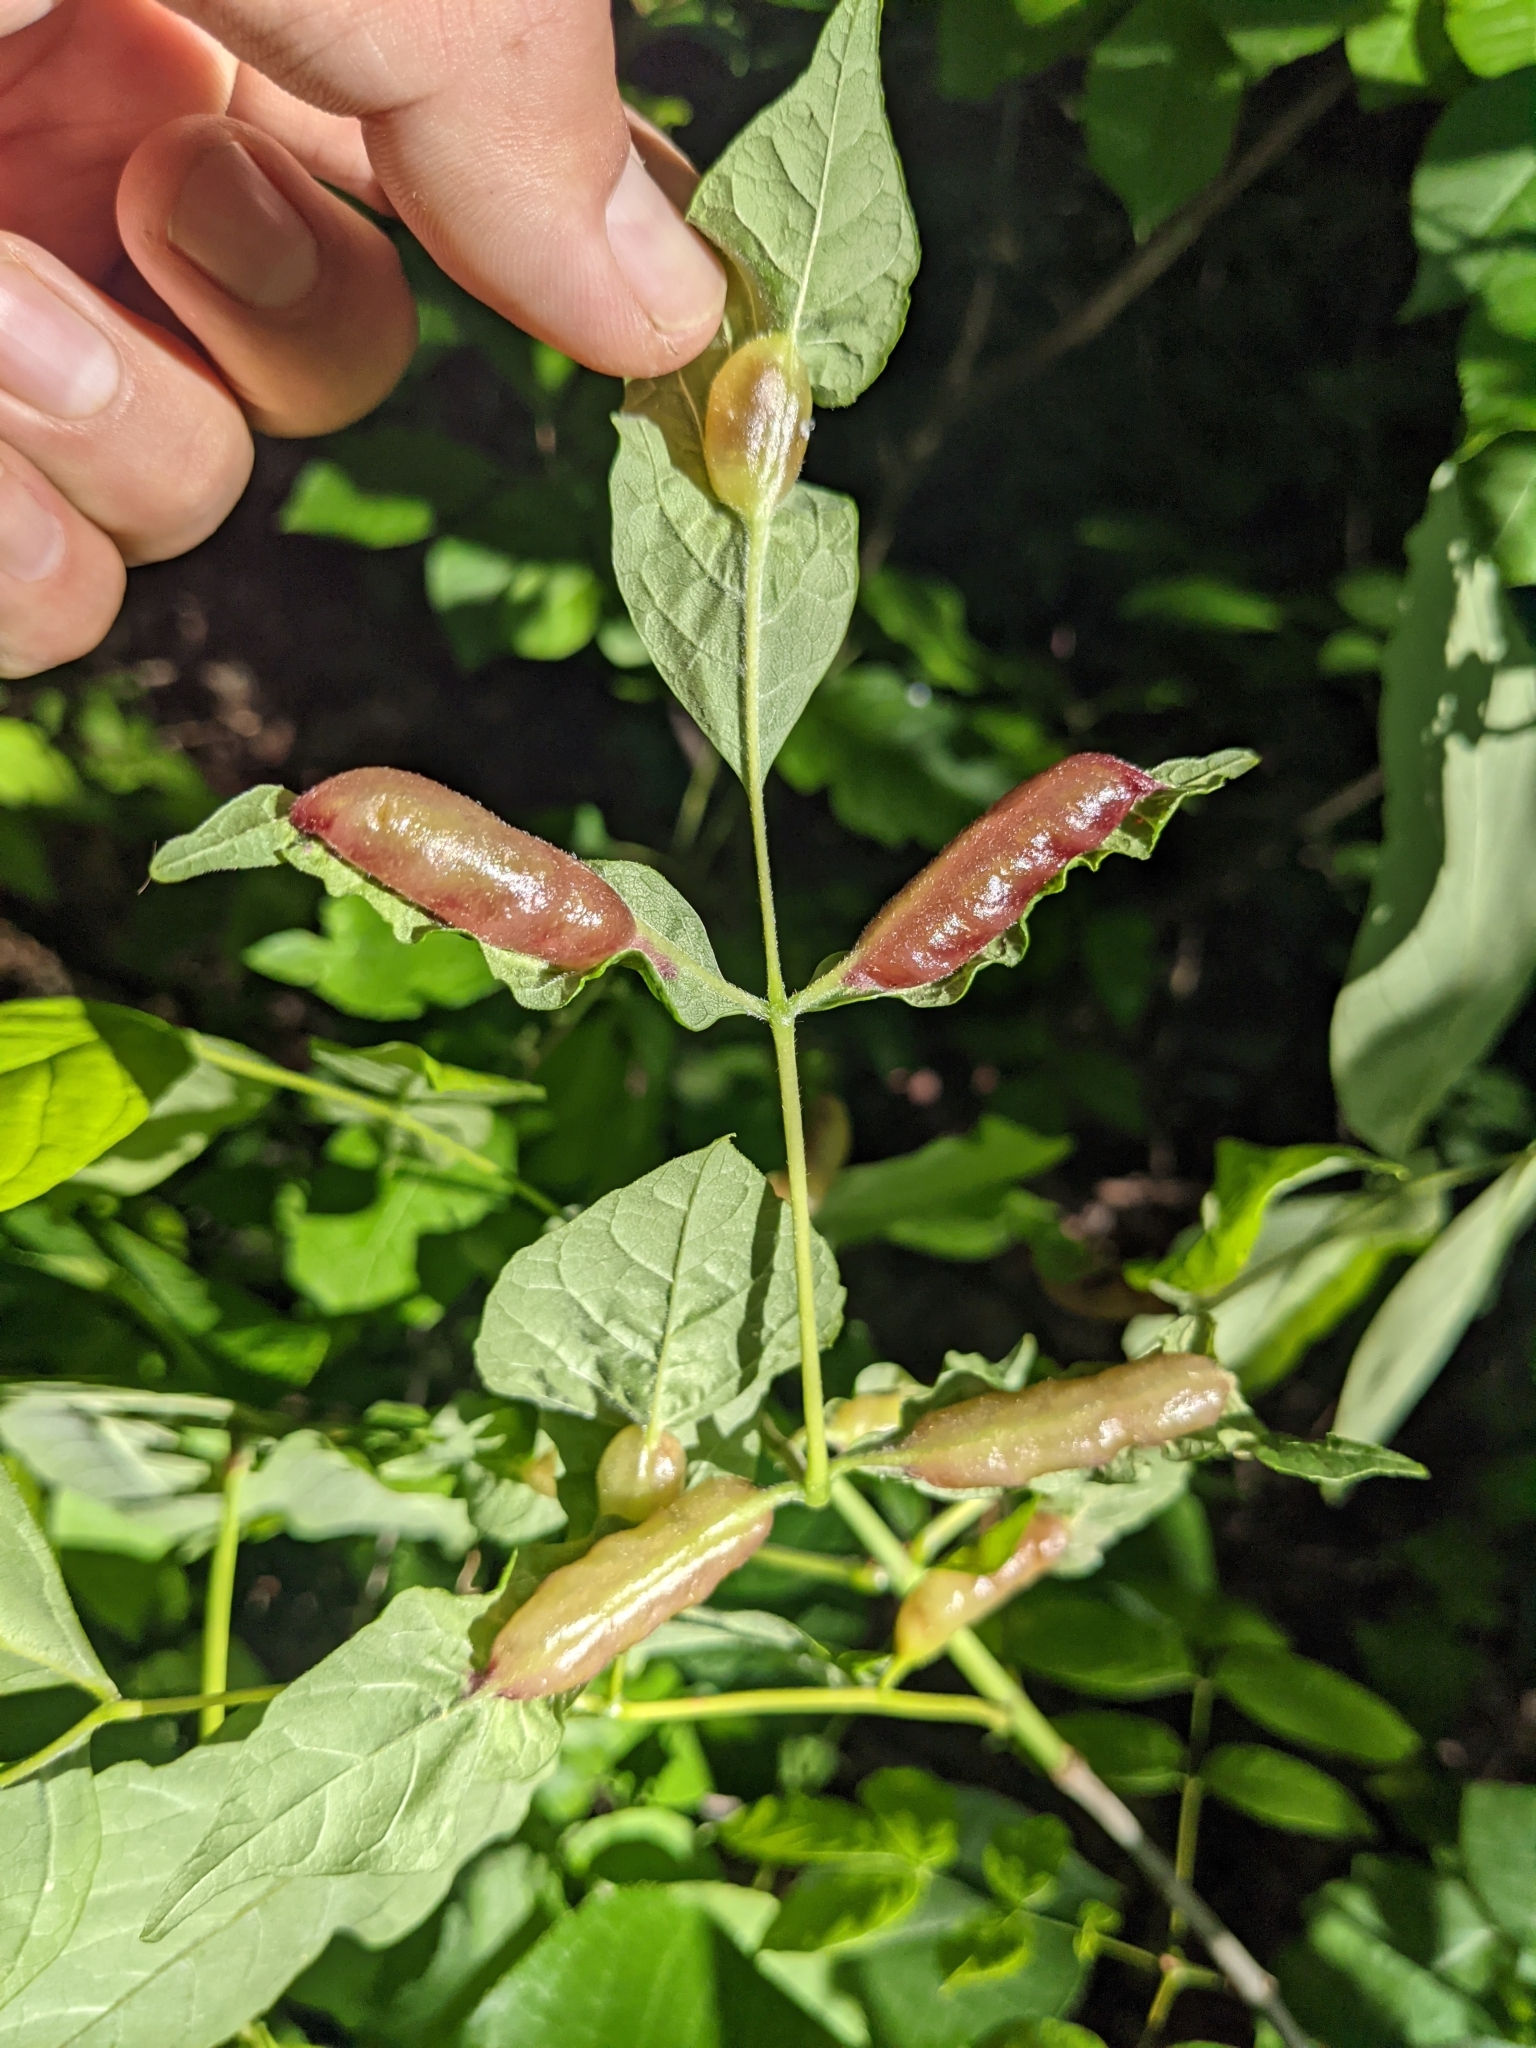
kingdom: Animalia
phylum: Arthropoda
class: Insecta
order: Diptera
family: Cecidomyiidae
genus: Dasineura
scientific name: Dasineura tumidosae
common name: Ash petiole gall midge
